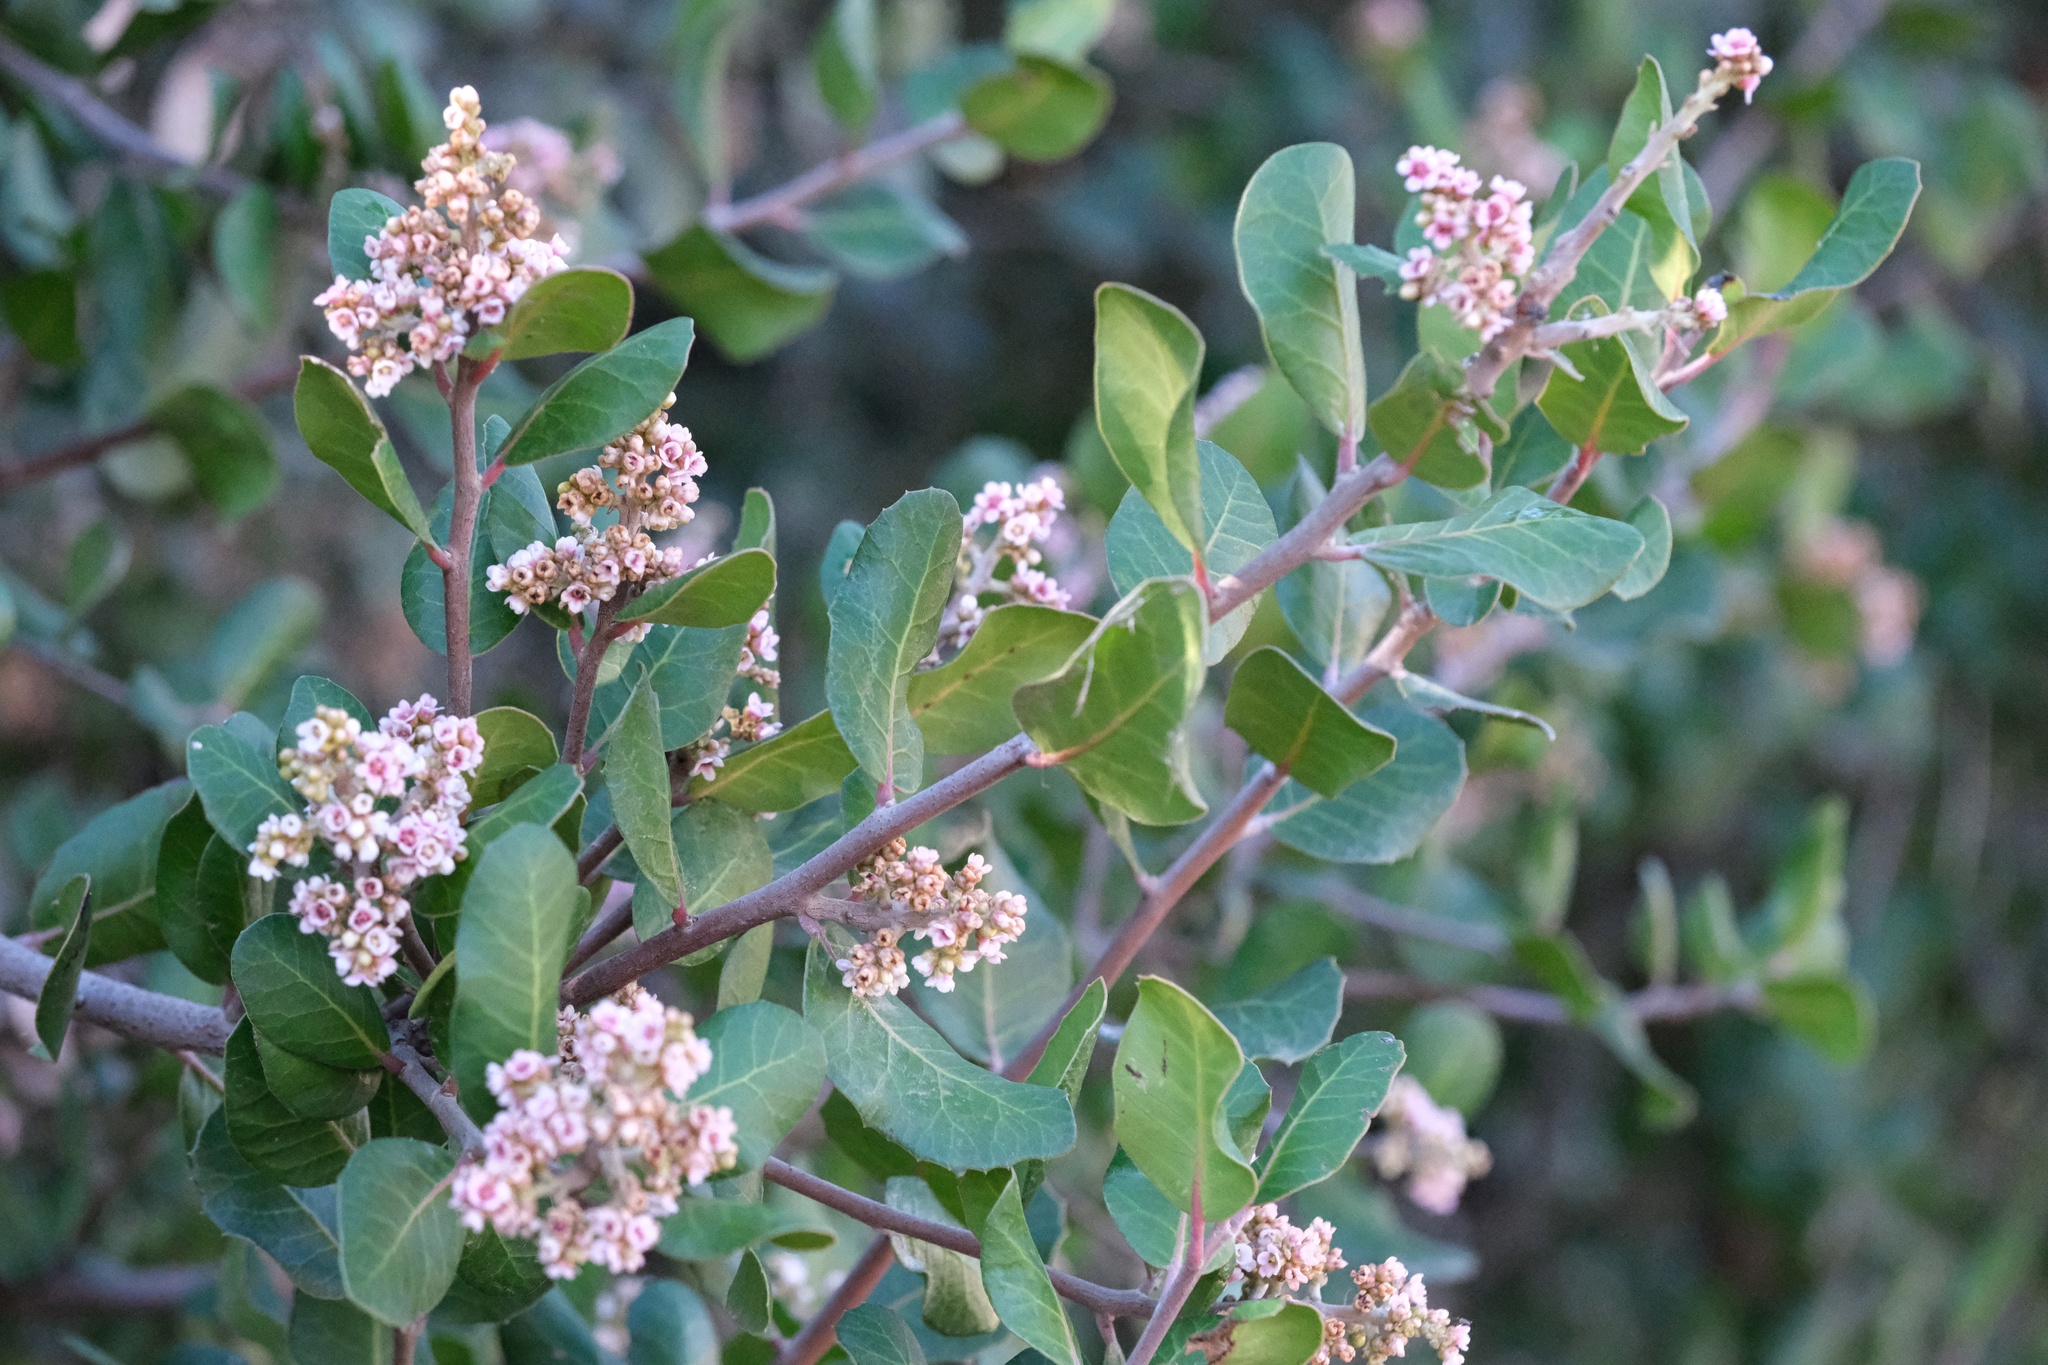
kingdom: Plantae
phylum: Tracheophyta
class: Magnoliopsida
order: Sapindales
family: Anacardiaceae
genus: Rhus
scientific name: Rhus integrifolia
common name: Lemonade sumac
